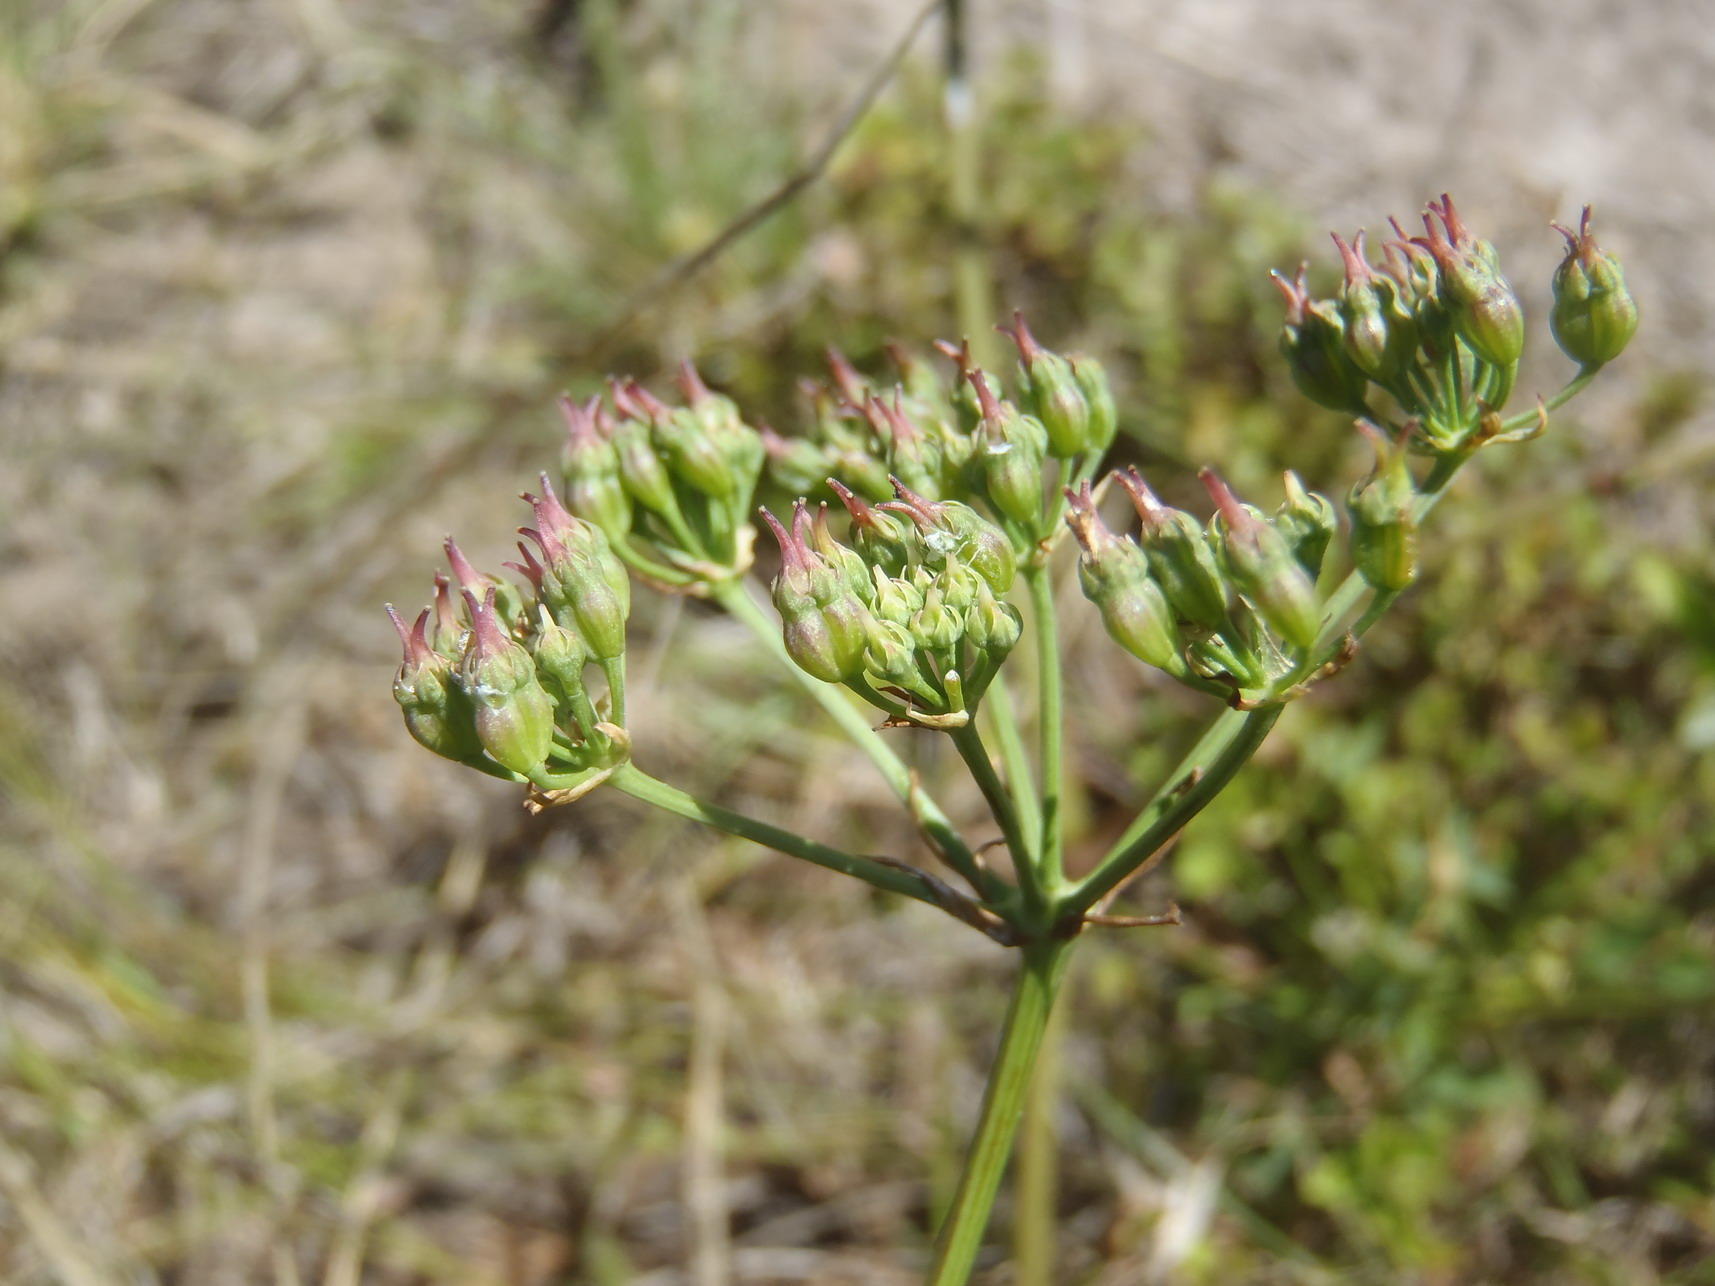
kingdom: Plantae
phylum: Tracheophyta
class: Magnoliopsida
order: Apiales
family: Apiaceae
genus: Lichtensteinia
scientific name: Lichtensteinia interrupta
